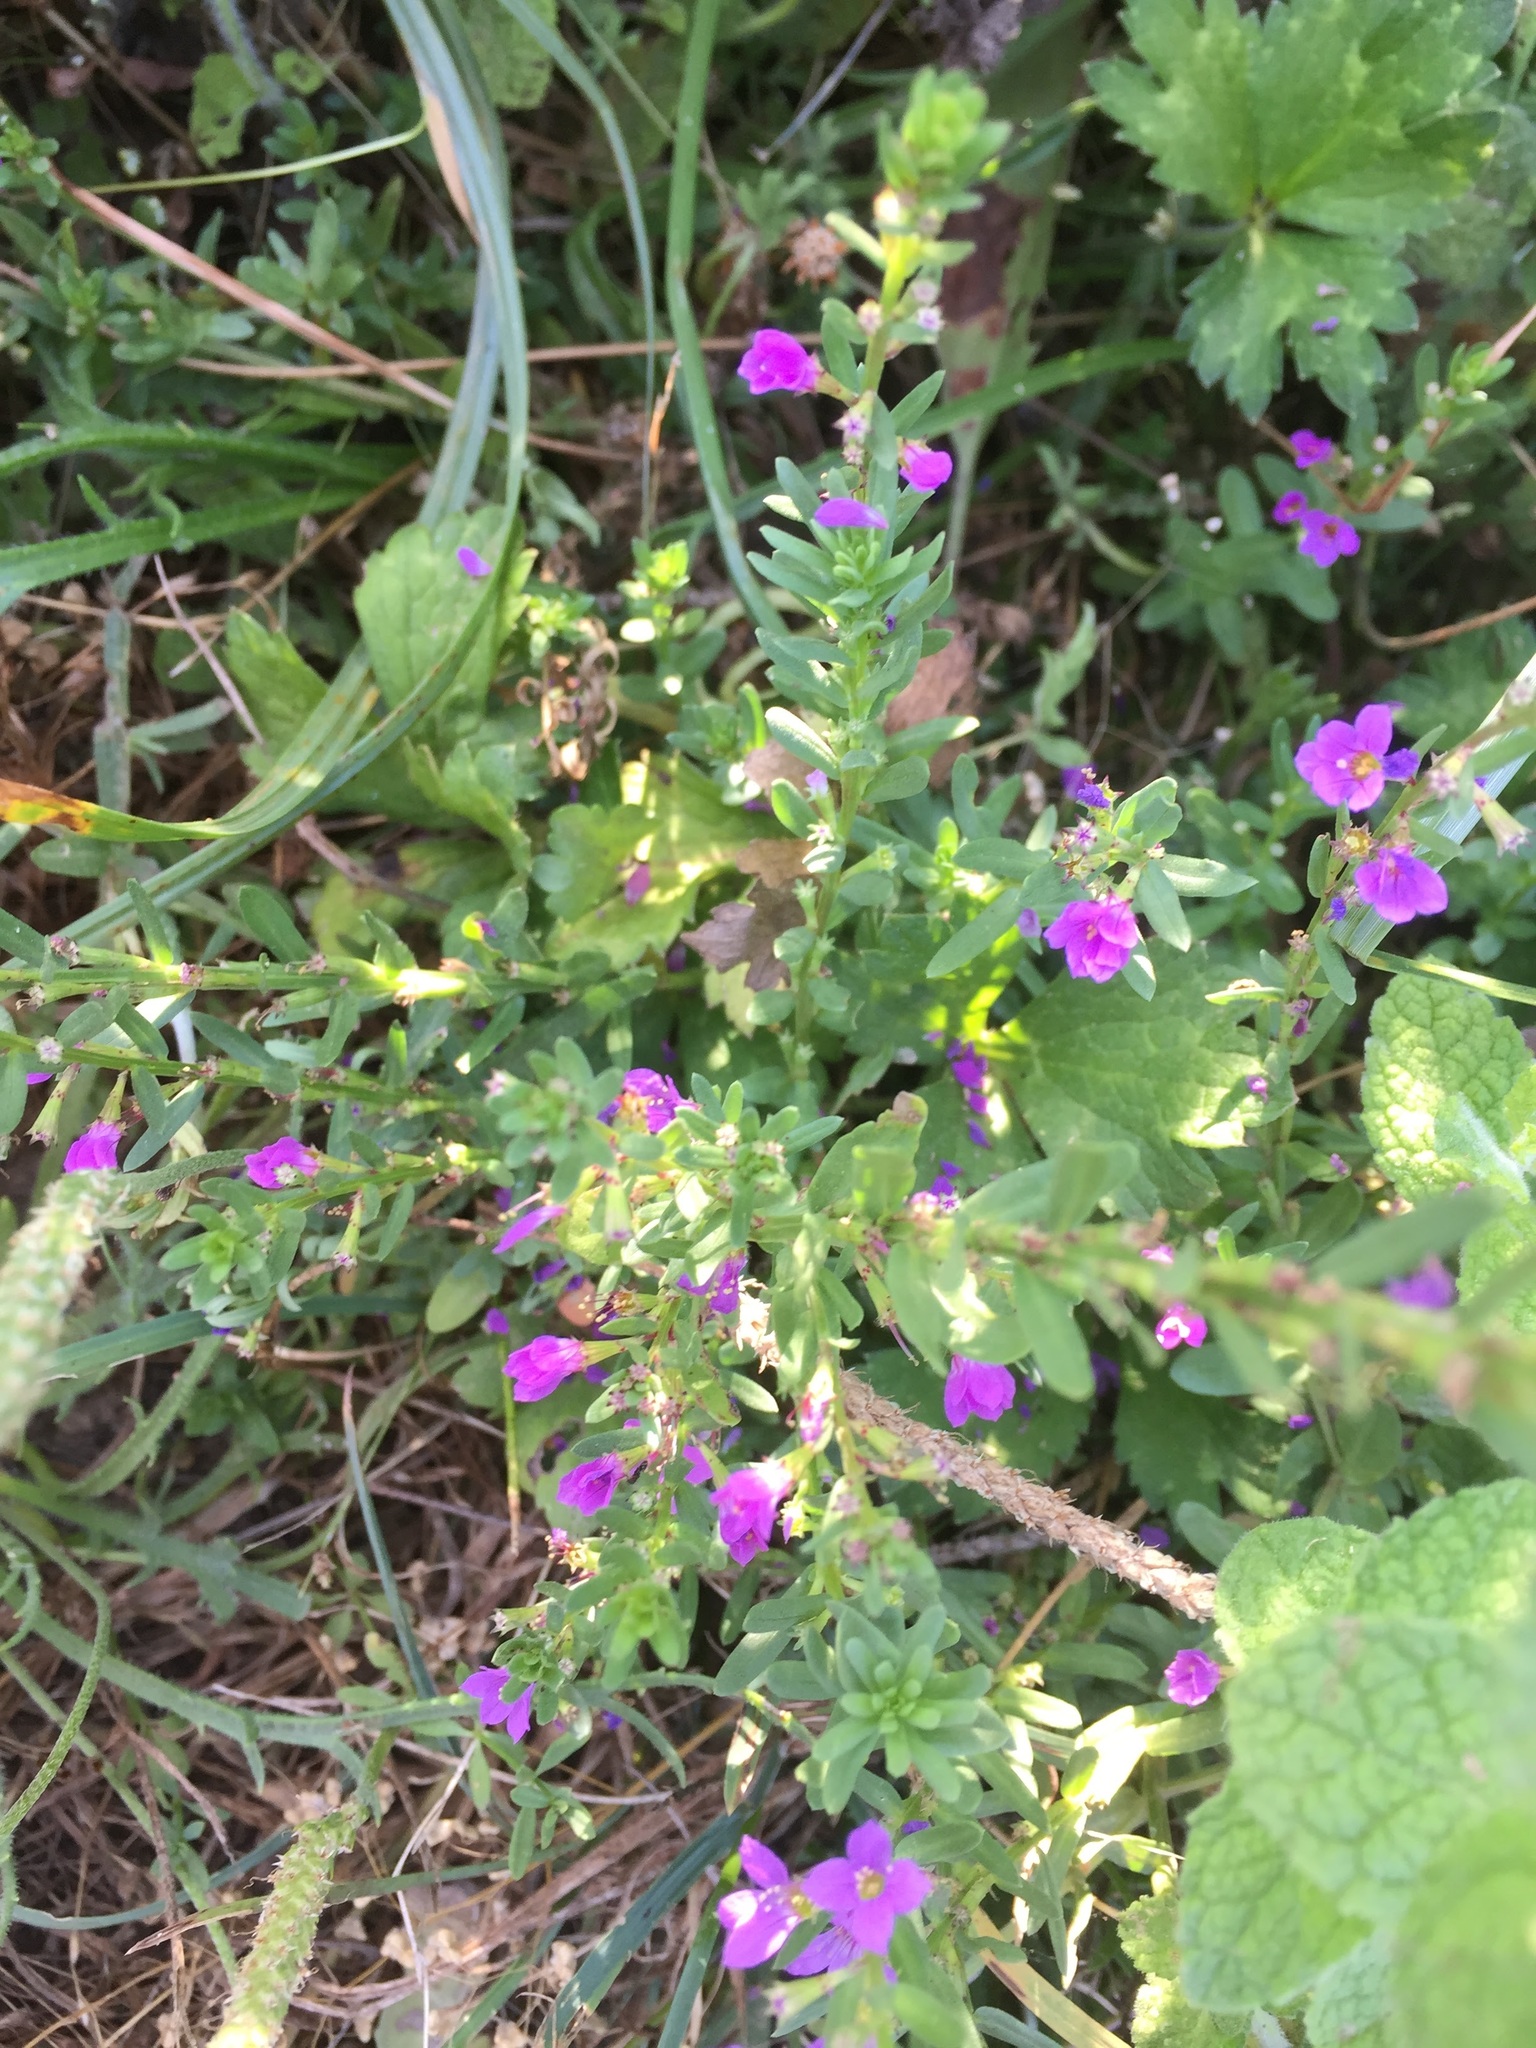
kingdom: Plantae
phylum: Tracheophyta
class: Magnoliopsida
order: Myrtales
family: Lythraceae
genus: Lythrum
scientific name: Lythrum hyssopifolia
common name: Grass-poly
